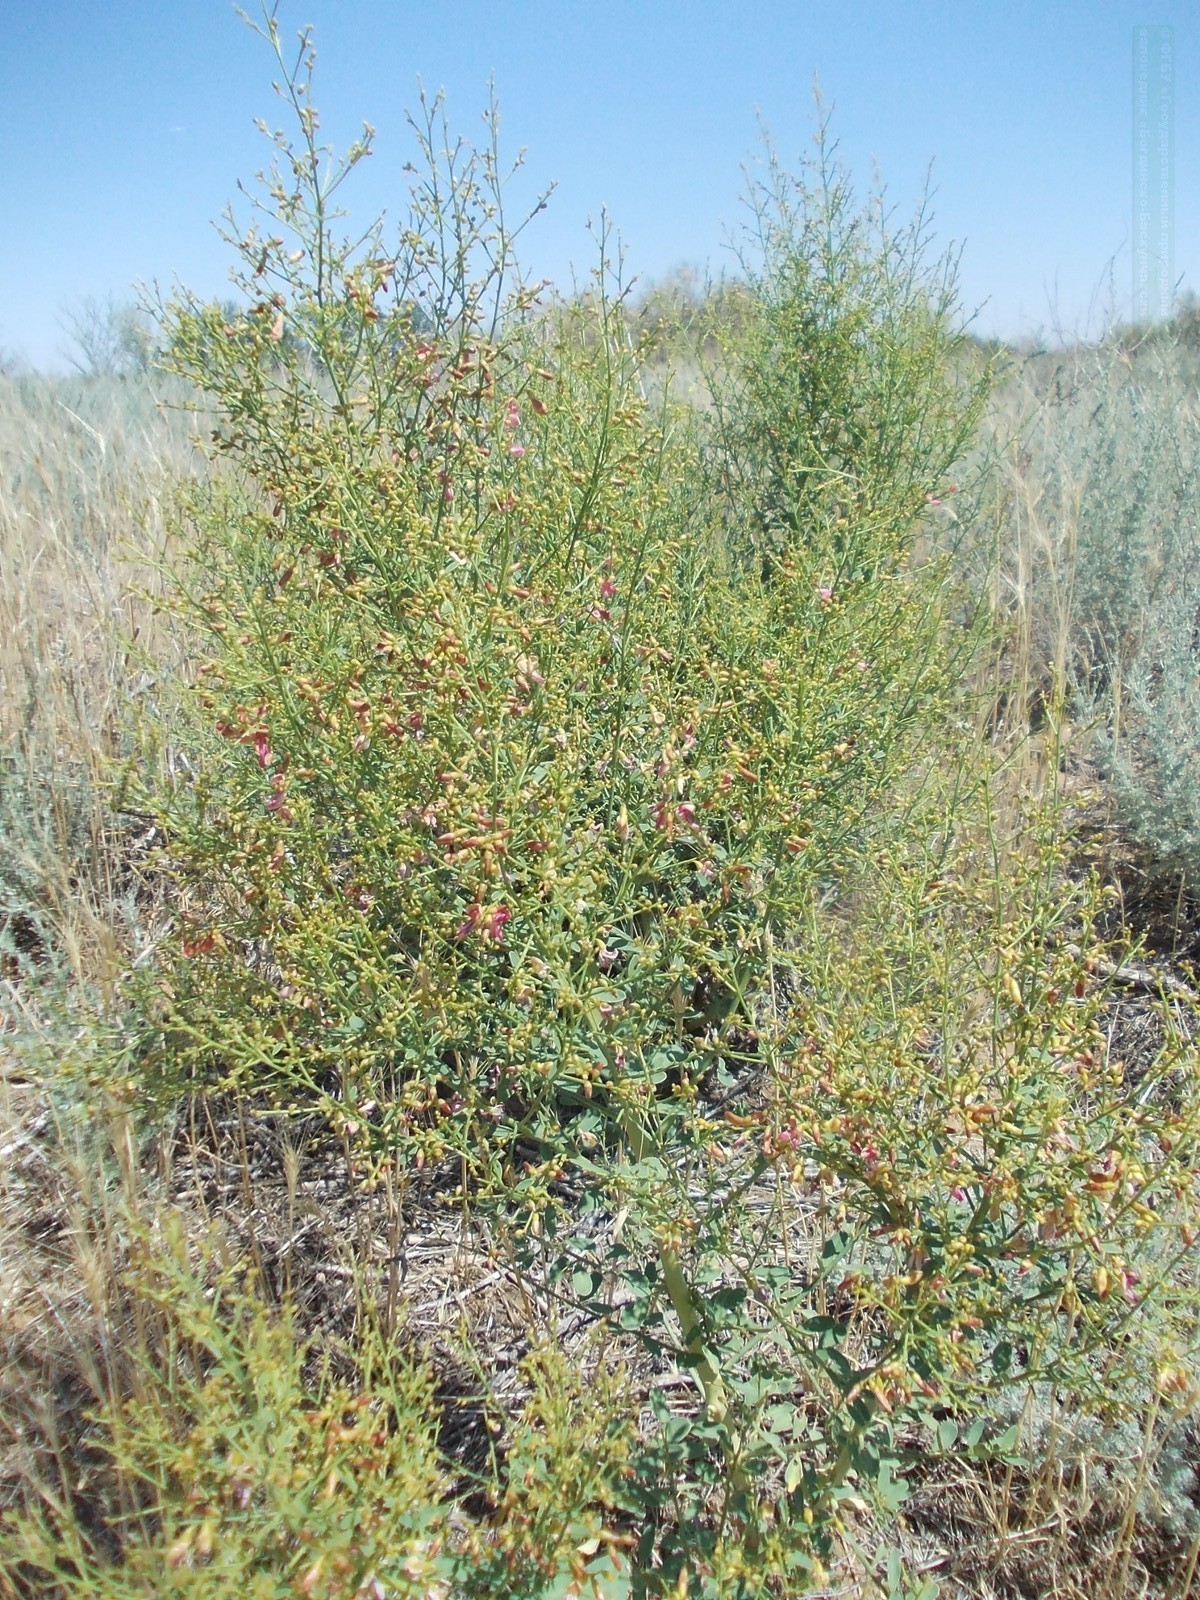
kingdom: Plantae
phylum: Tracheophyta
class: Magnoliopsida
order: Fabales
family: Fabaceae
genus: Alhagi
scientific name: Alhagi pseudalhagi
